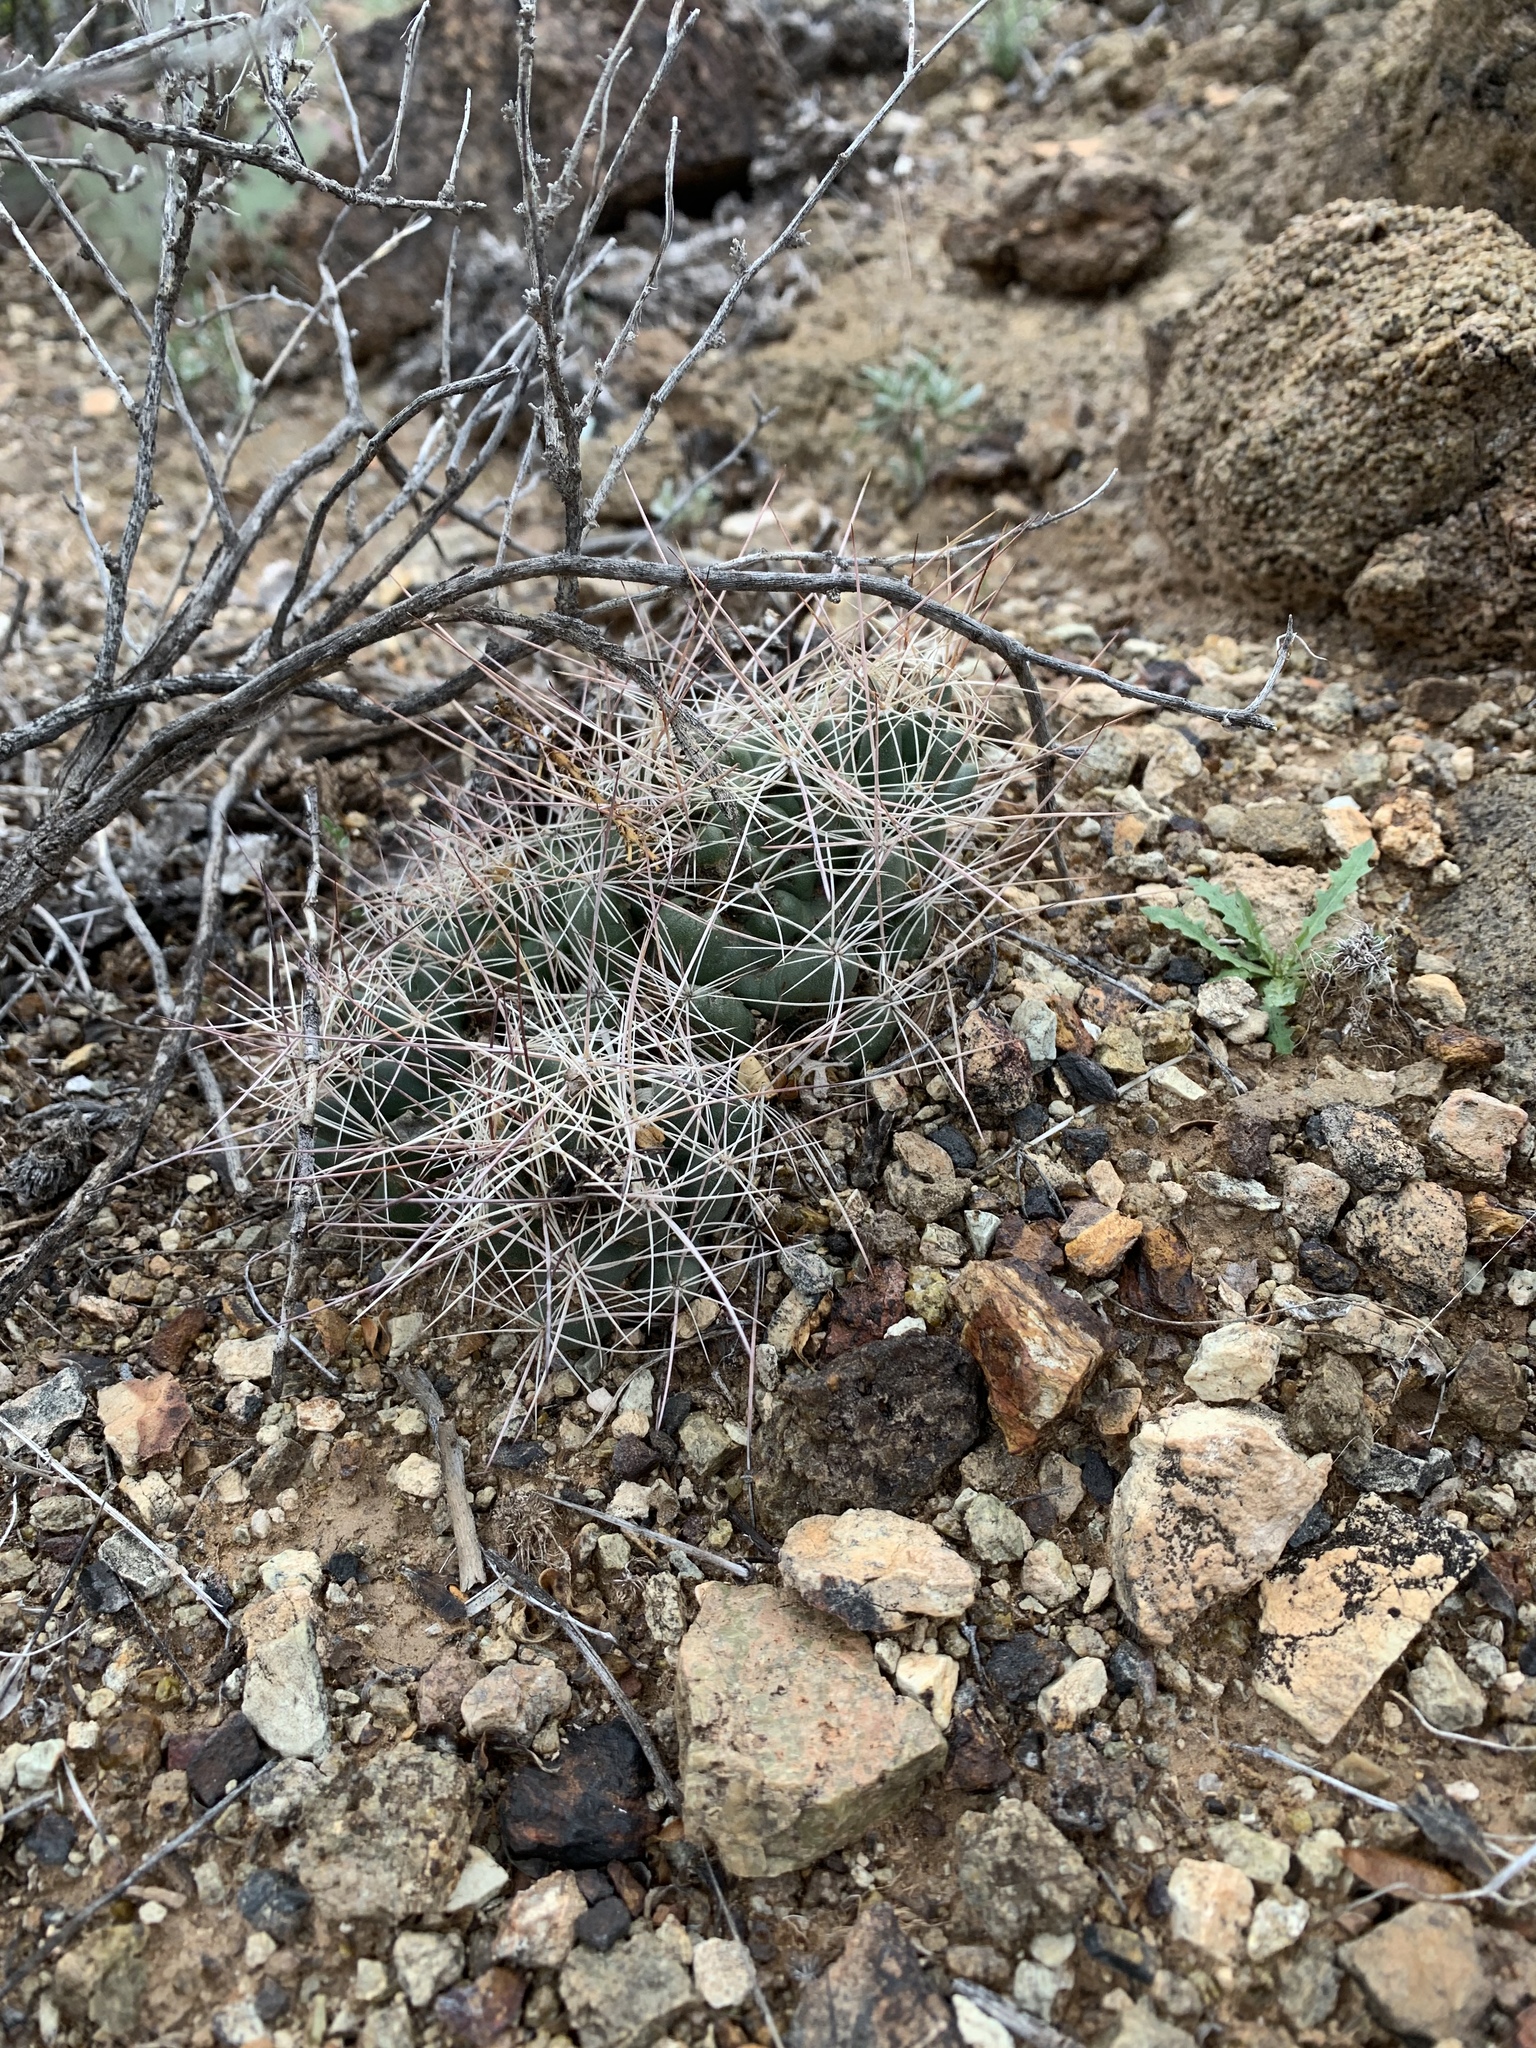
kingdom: Plantae
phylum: Tracheophyta
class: Magnoliopsida
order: Caryophyllales
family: Cactaceae
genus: Coryphantha
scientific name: Coryphantha macromeris
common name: Nipple beehive cactus
